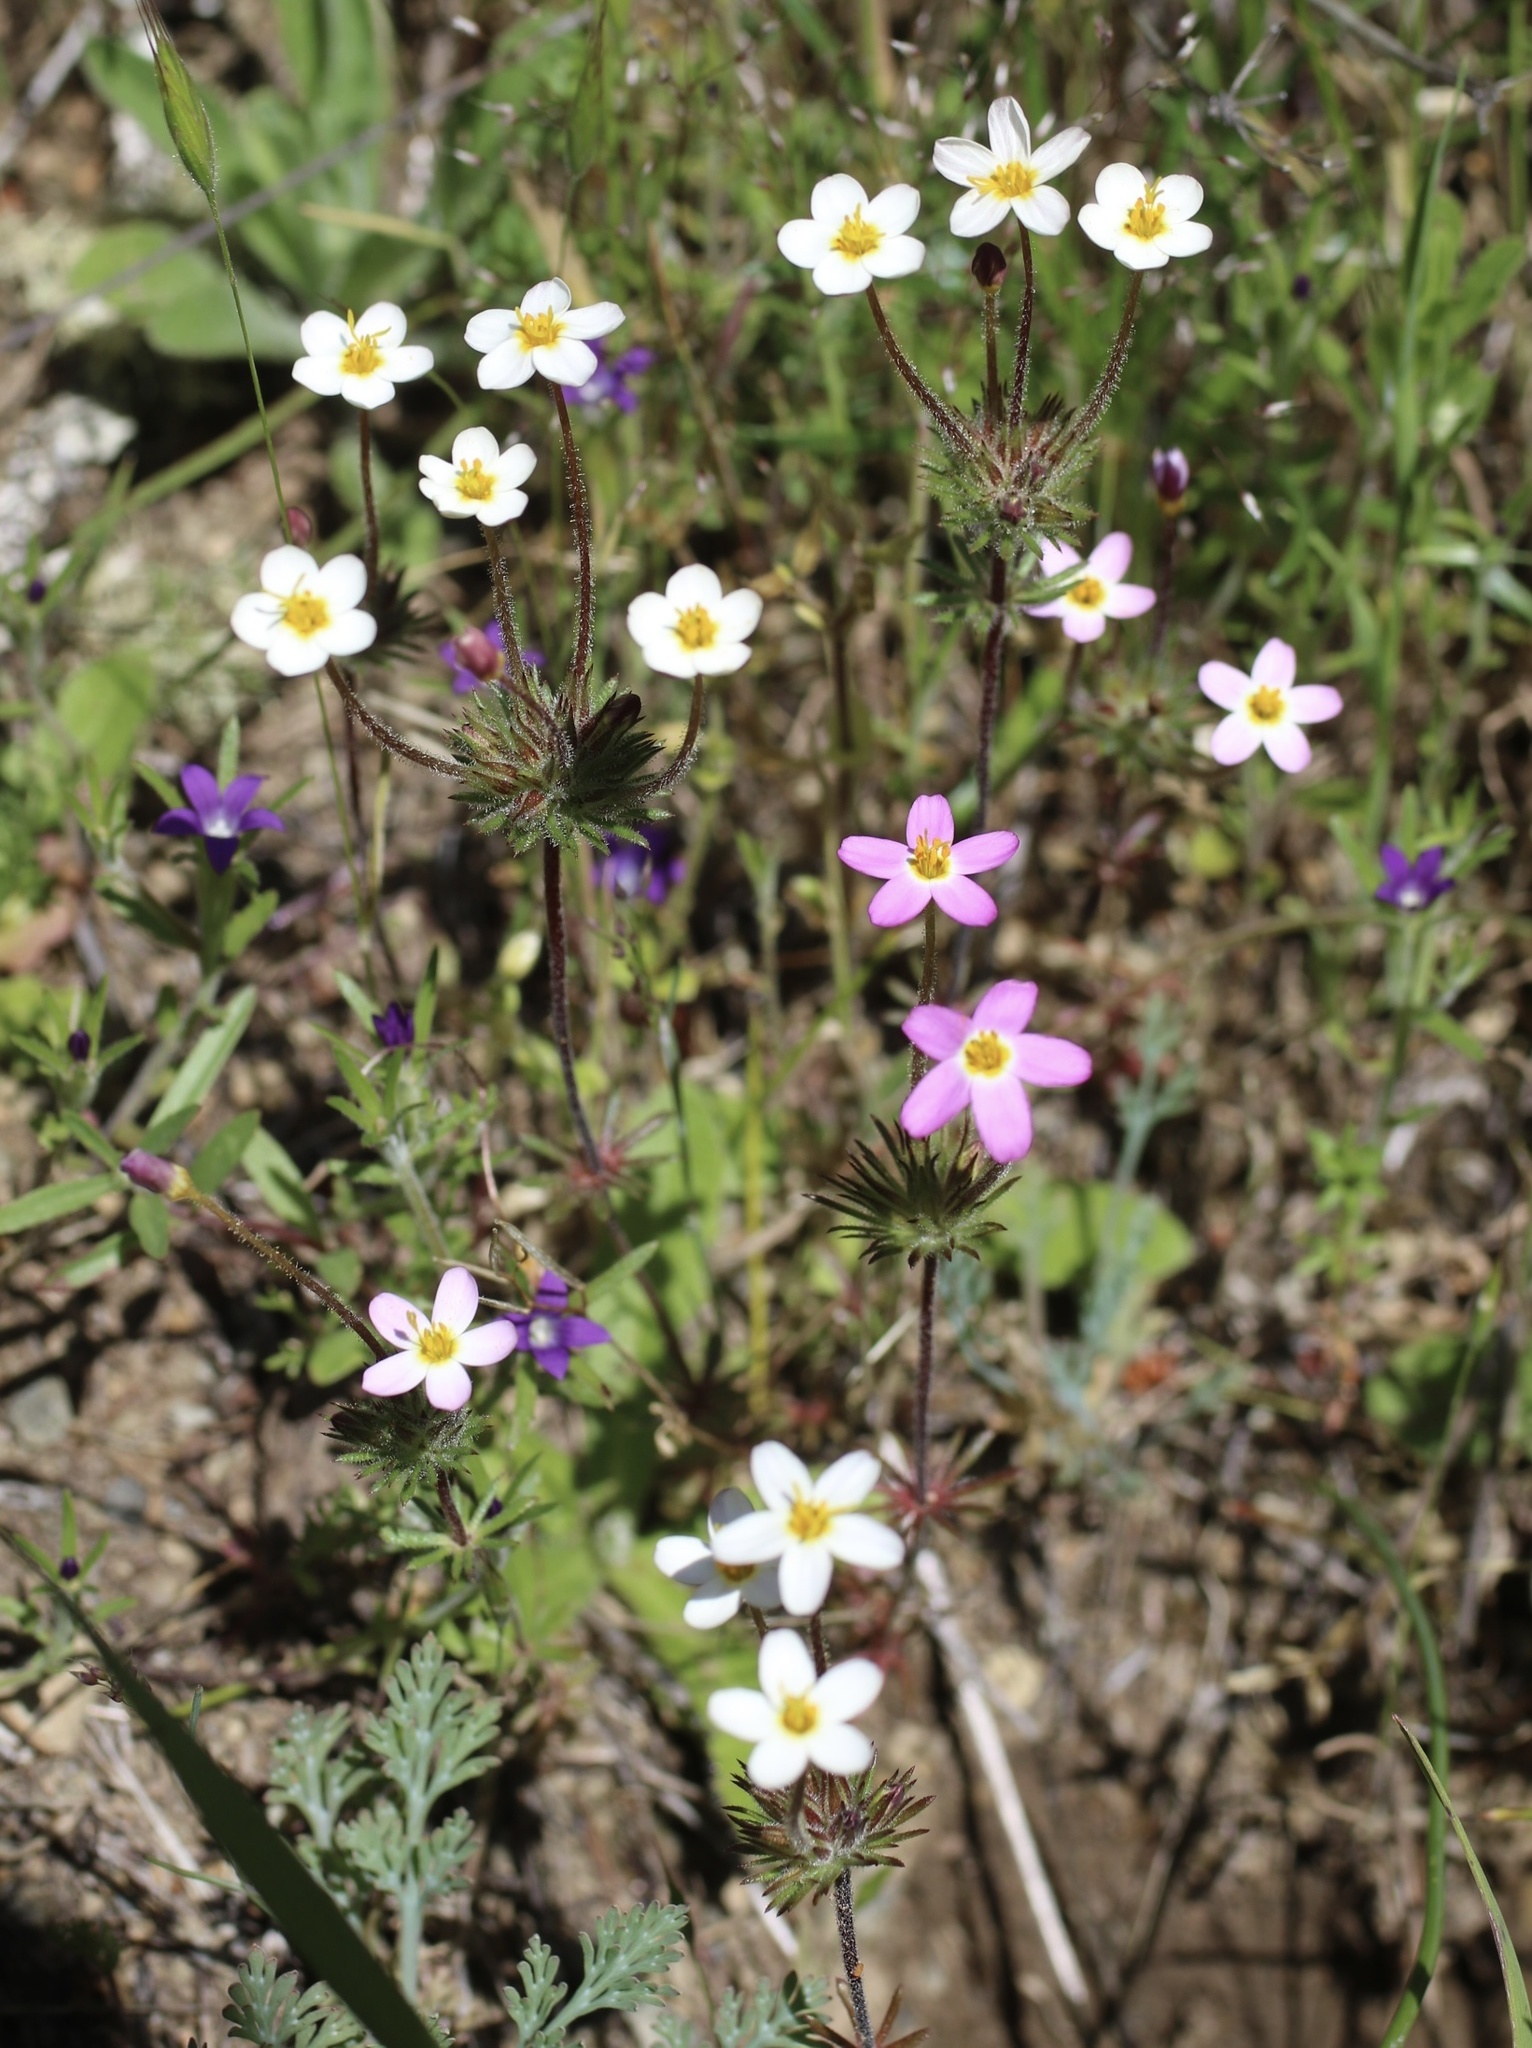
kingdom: Plantae
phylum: Tracheophyta
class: Magnoliopsida
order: Ericales
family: Polemoniaceae
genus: Leptosiphon
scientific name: Leptosiphon parviflorus
